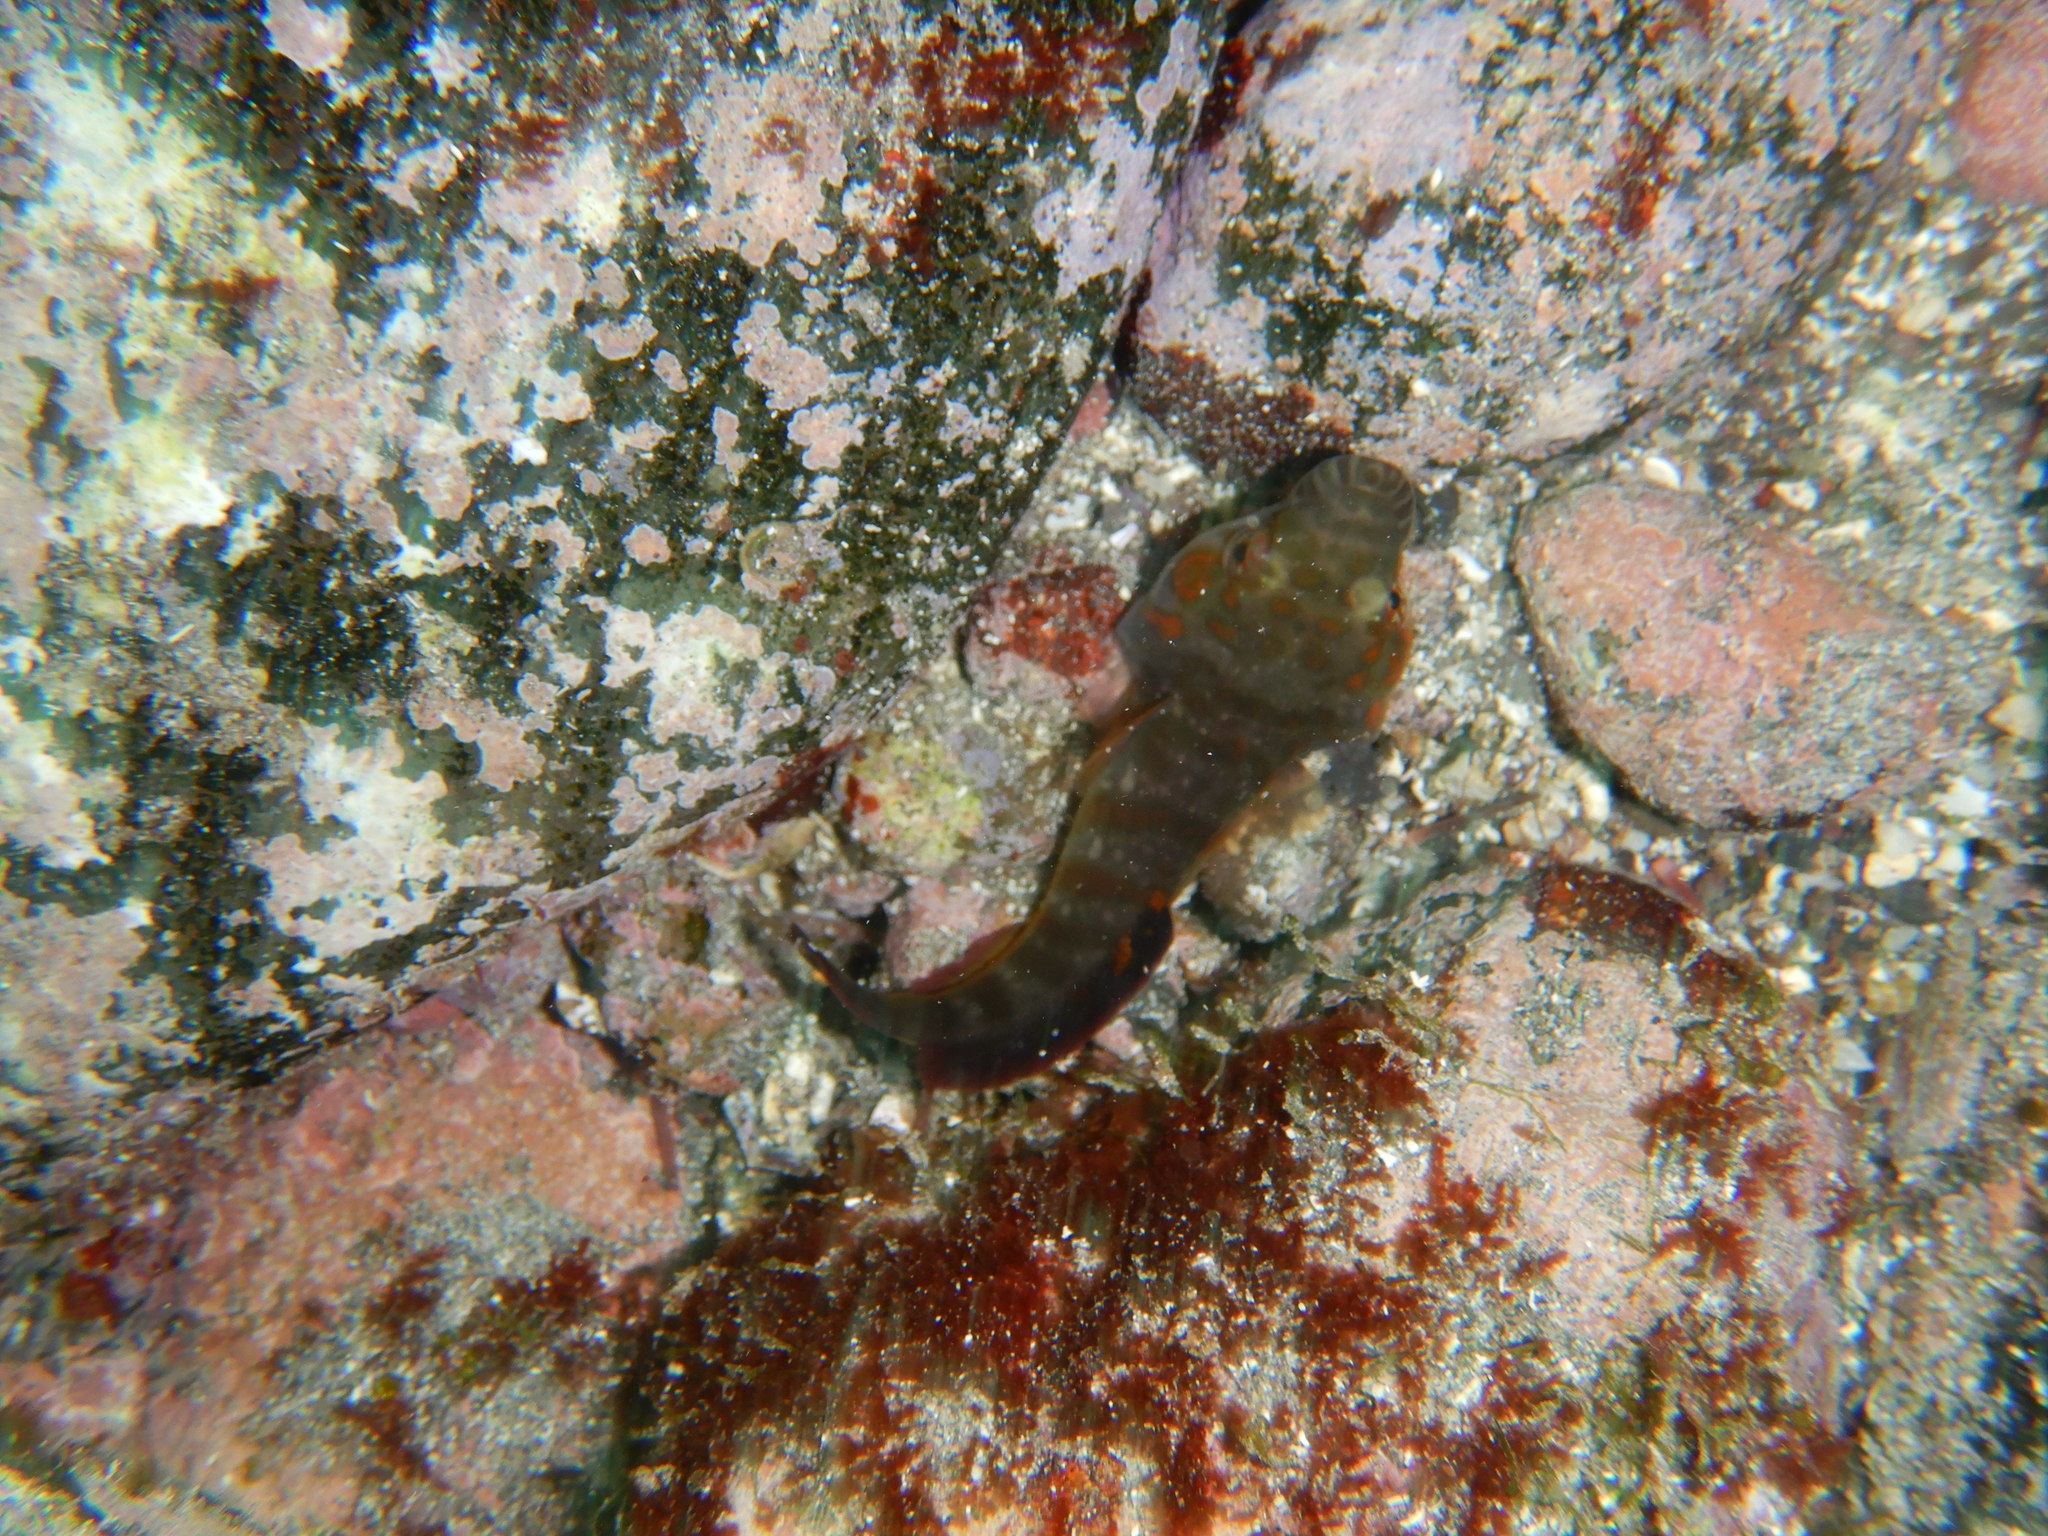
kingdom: Animalia
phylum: Chordata
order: Gobiesociformes
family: Gobiesocidae
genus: Lepadogaster
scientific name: Lepadogaster candolii
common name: Connemarra clingfish
